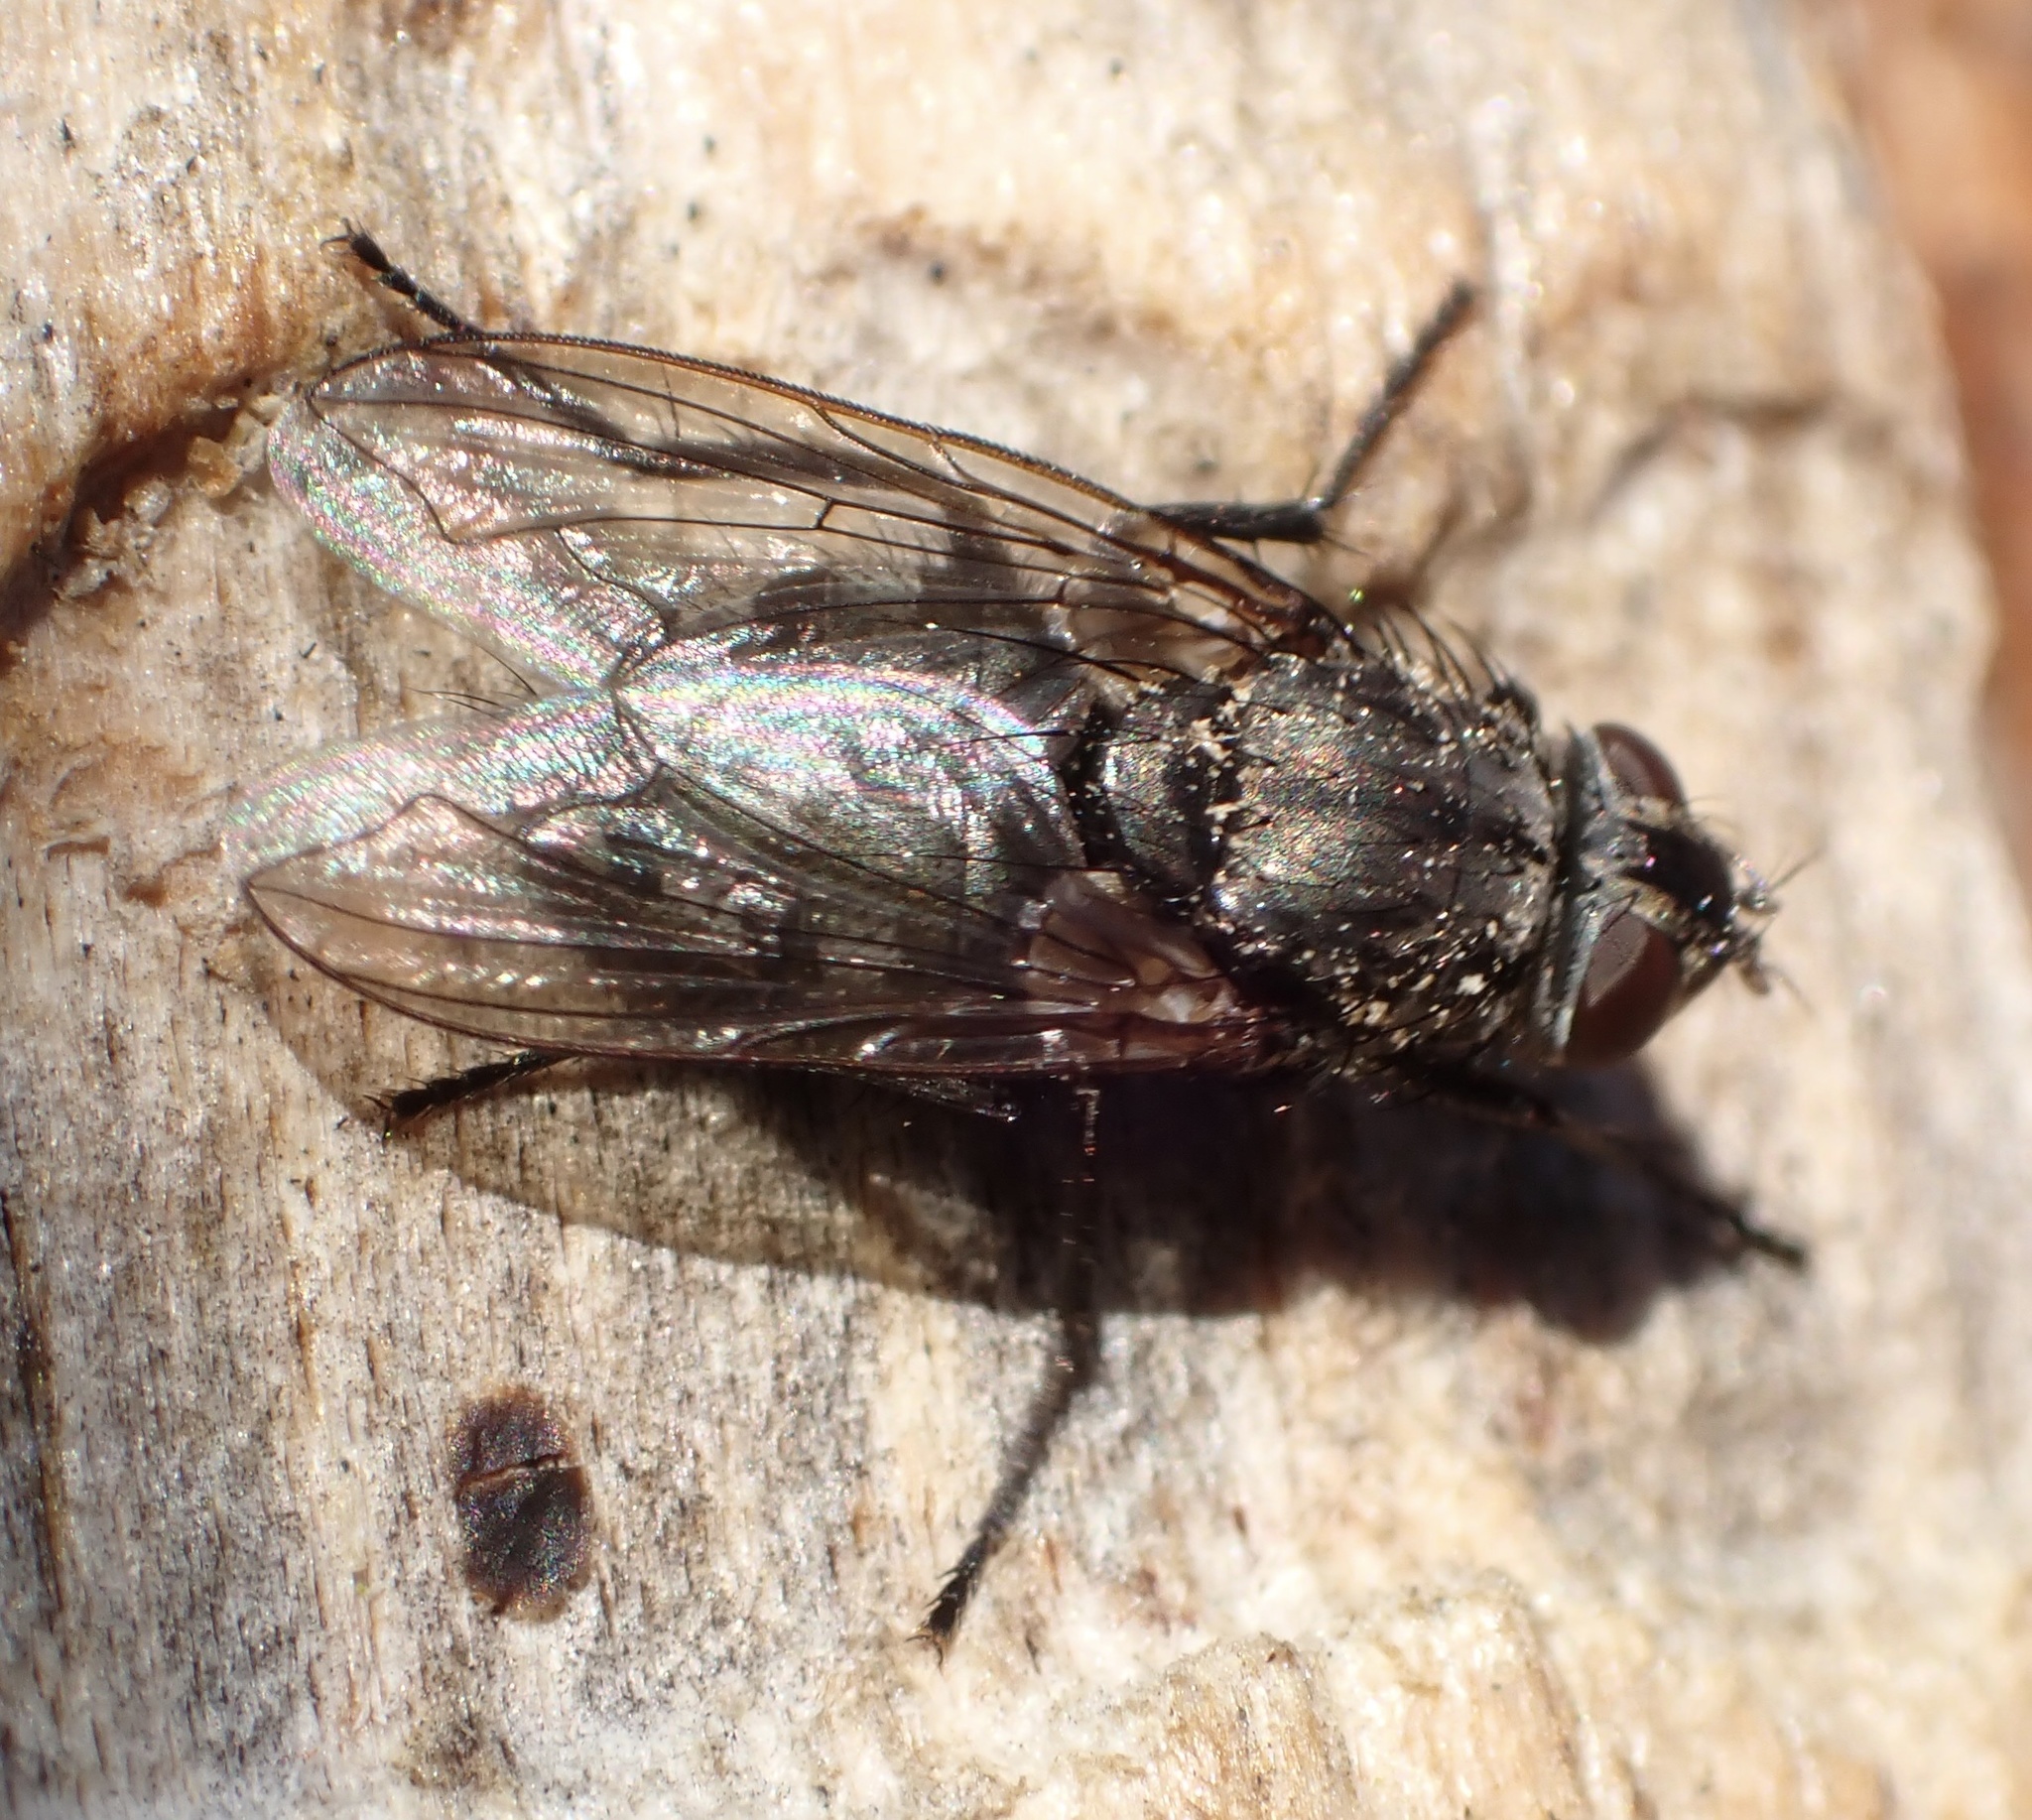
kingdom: Animalia
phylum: Arthropoda
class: Insecta
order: Diptera
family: Polleniidae
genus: Pollenia
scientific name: Pollenia vagabunda
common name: Vagabund cluster fly
